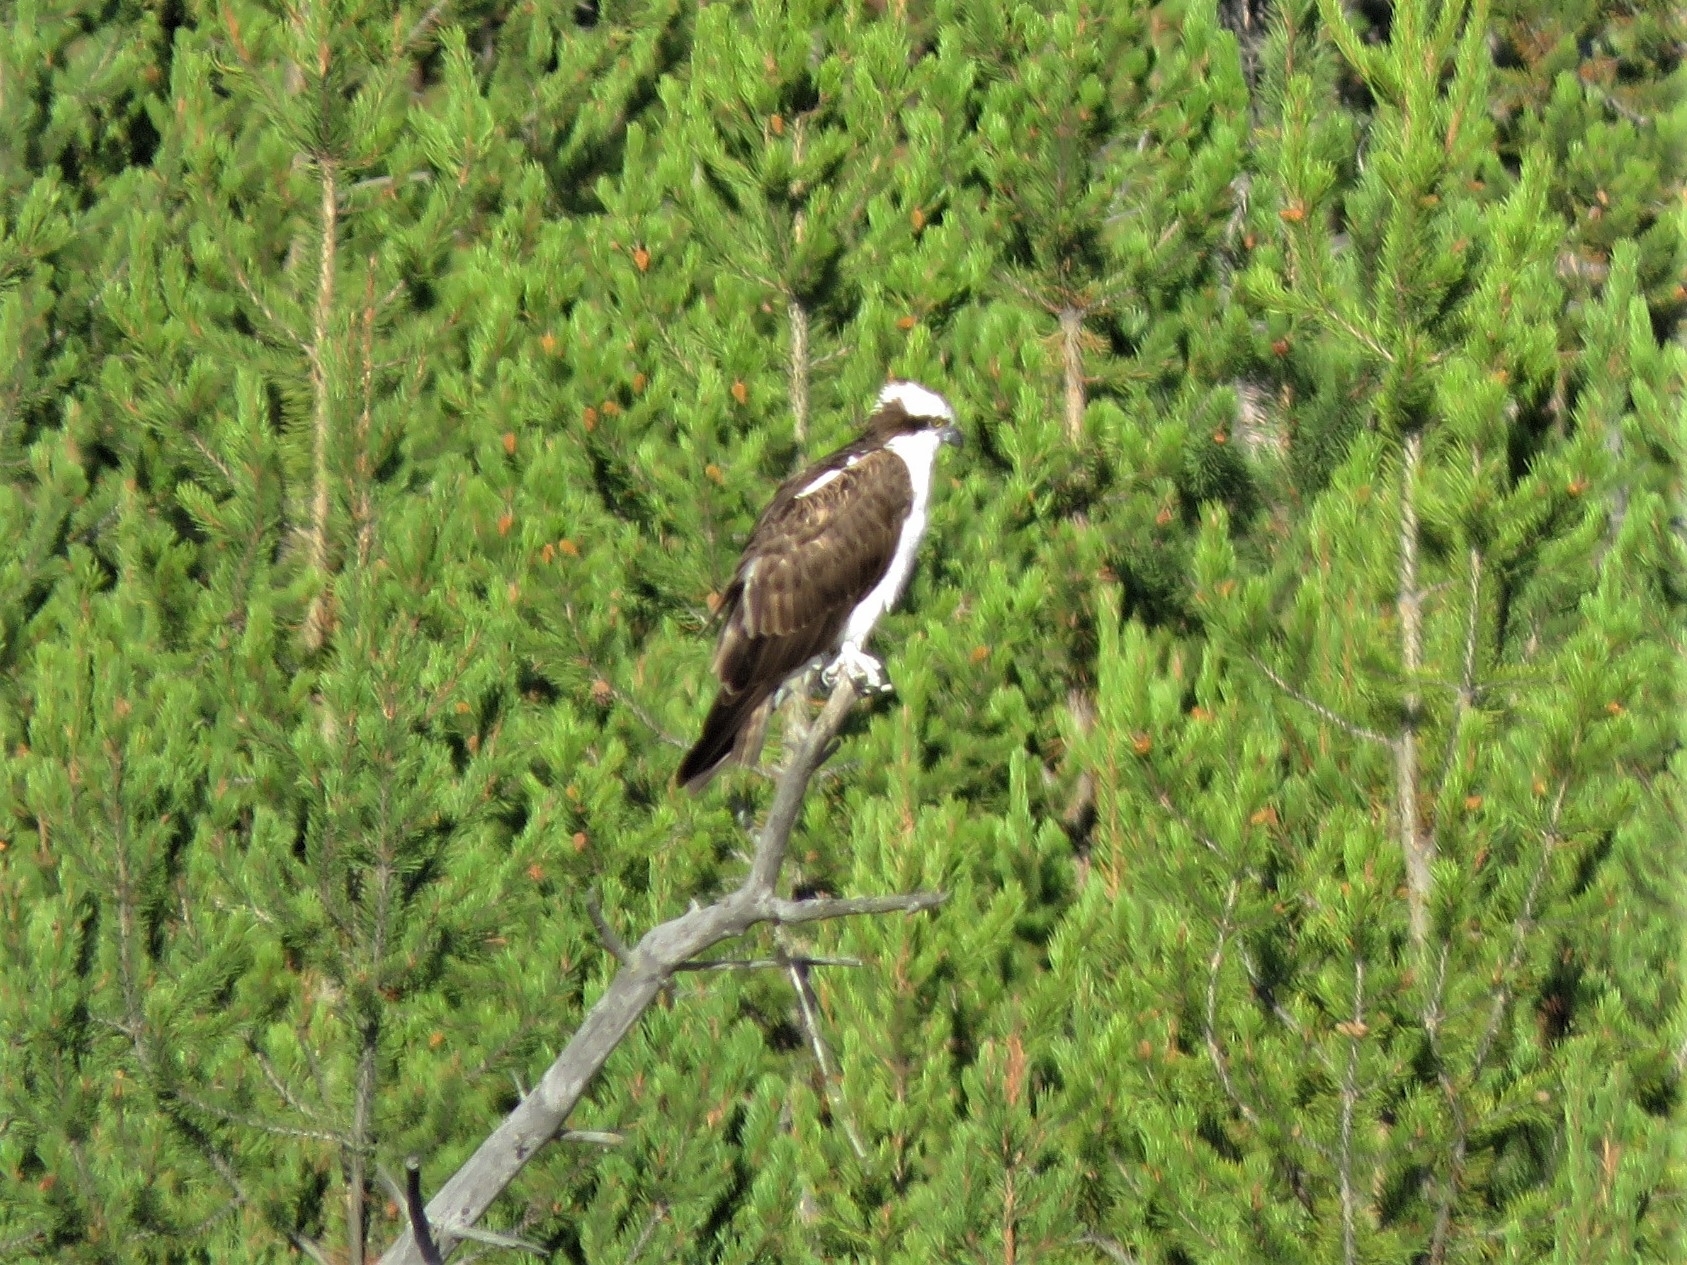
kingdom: Animalia
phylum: Chordata
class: Aves
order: Accipitriformes
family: Pandionidae
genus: Pandion
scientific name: Pandion haliaetus
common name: Osprey
